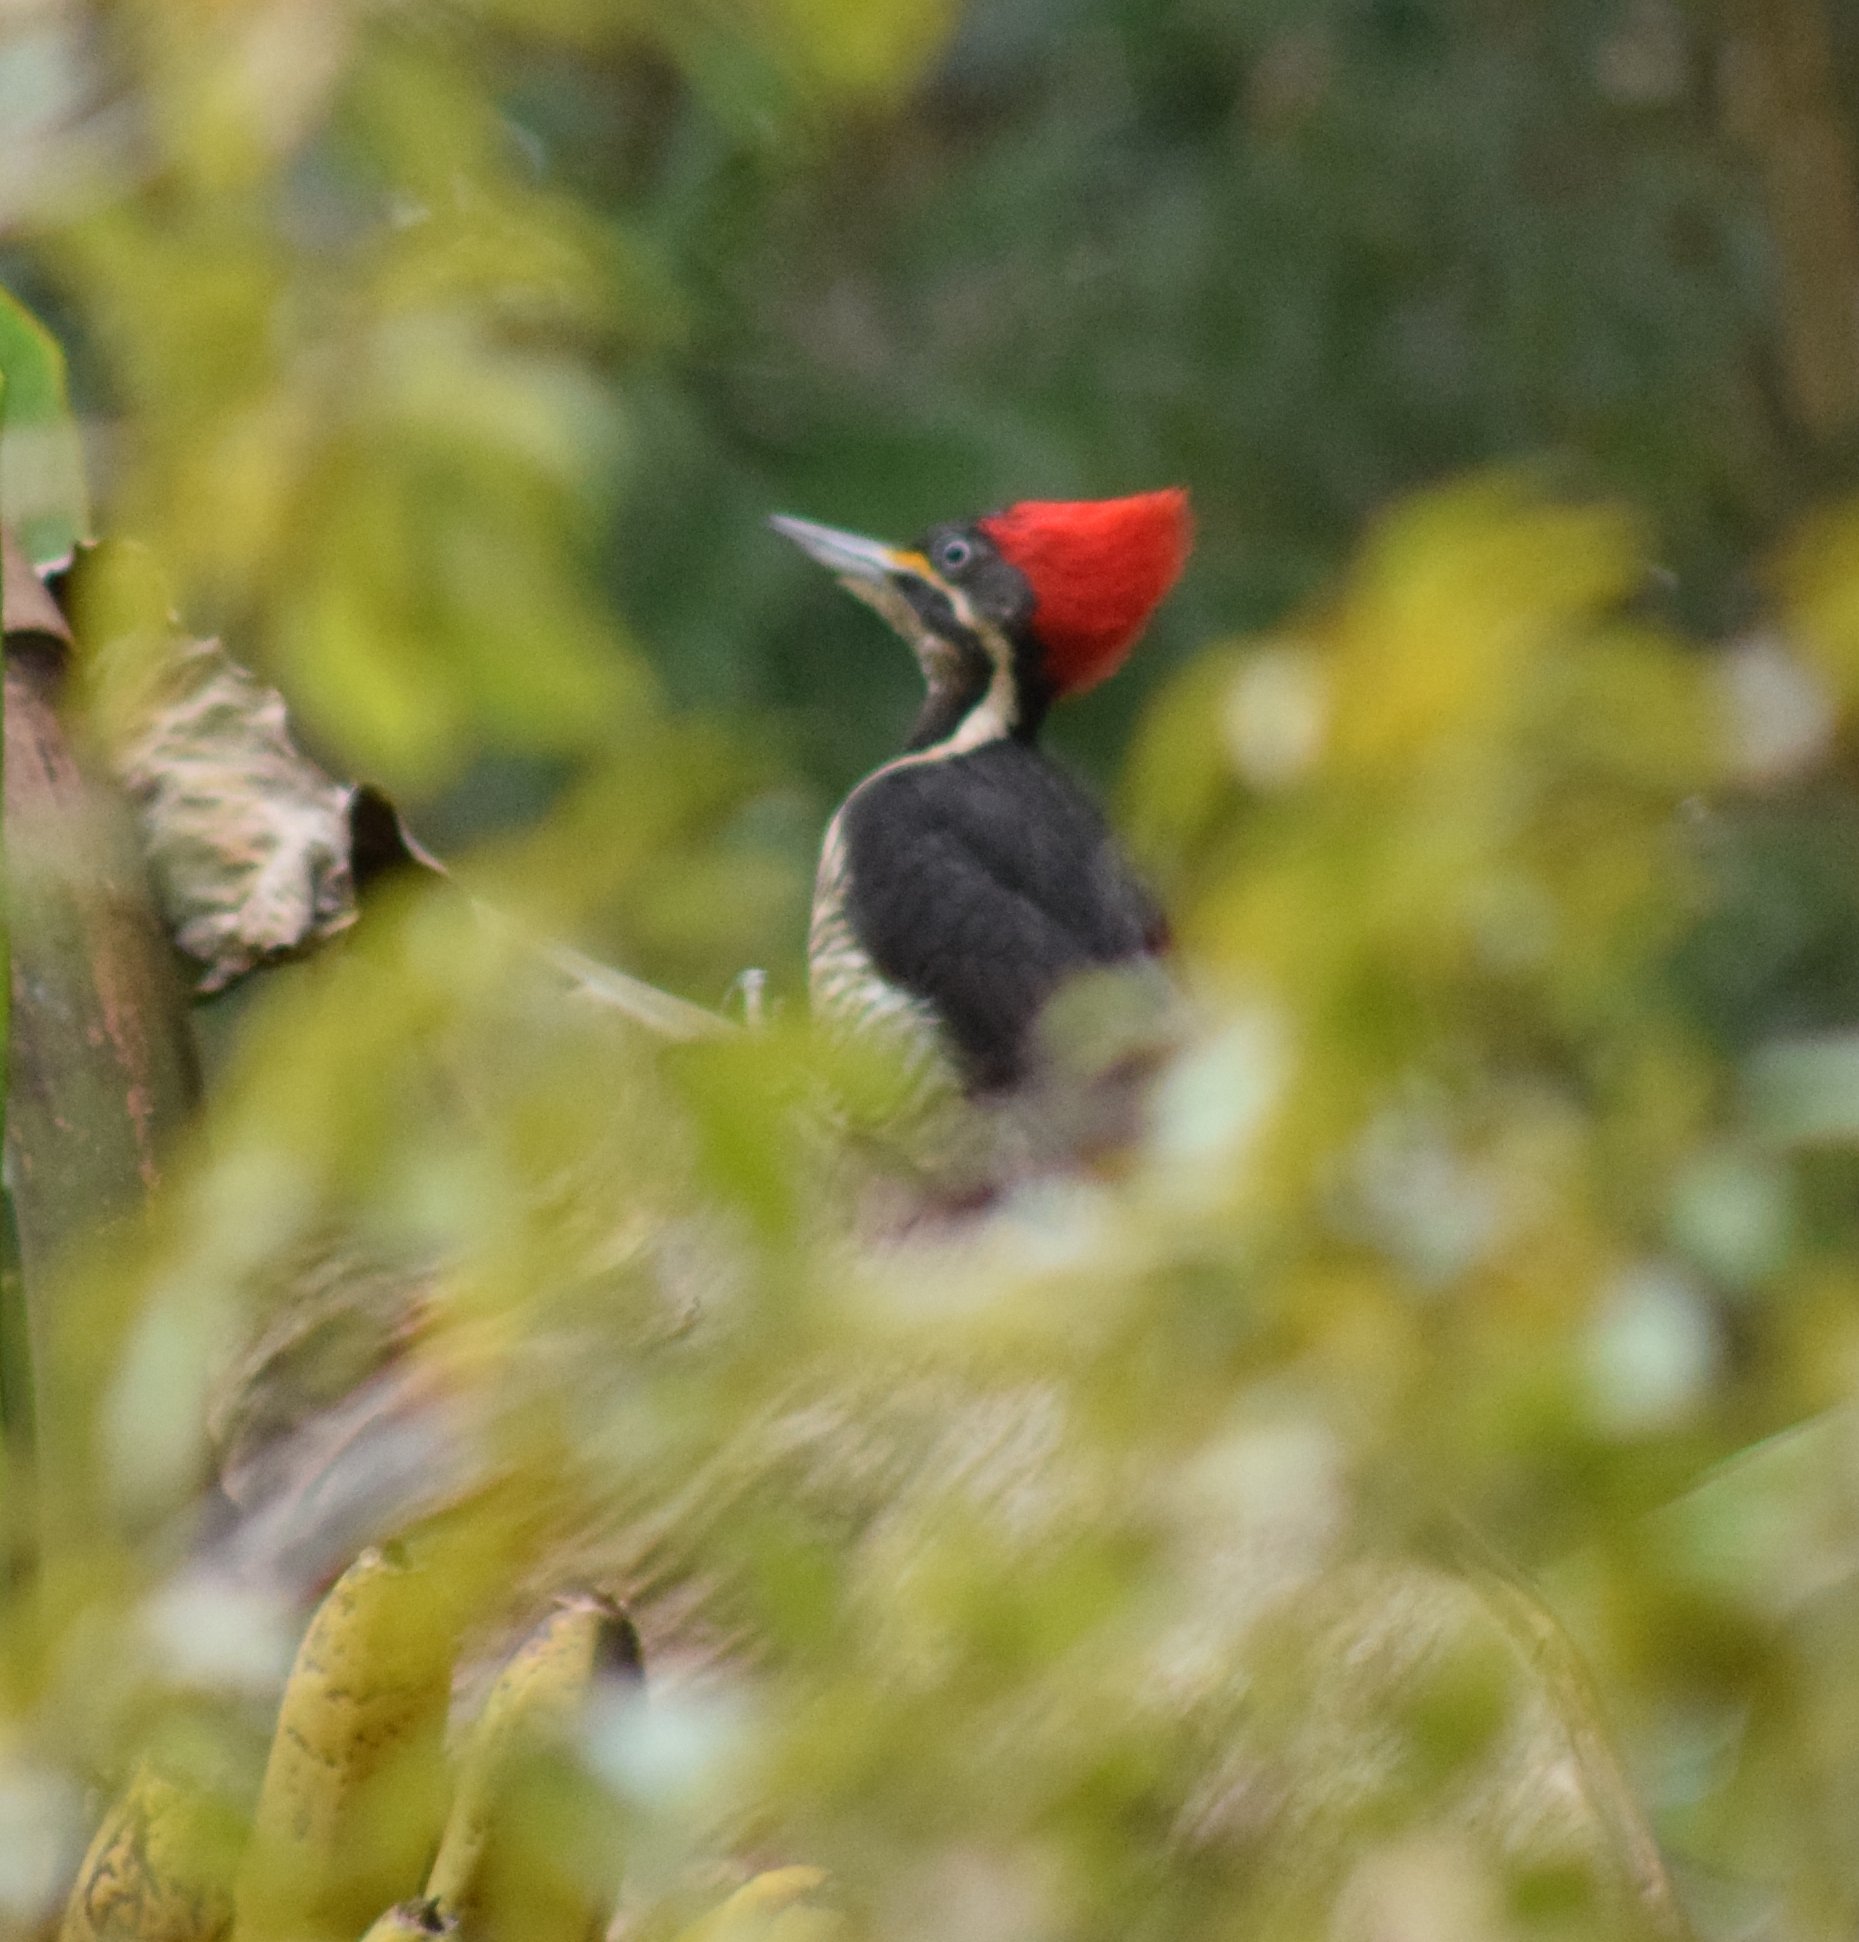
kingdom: Animalia
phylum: Chordata
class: Aves
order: Piciformes
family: Picidae
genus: Dryocopus
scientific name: Dryocopus lineatus
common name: Lineated woodpecker
